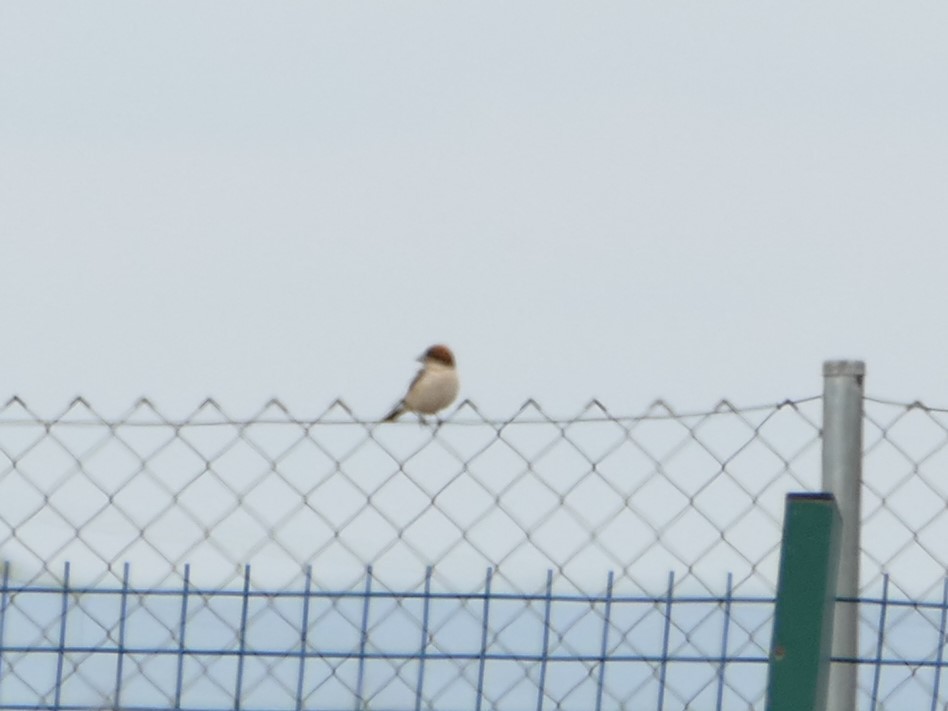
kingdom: Animalia
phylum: Chordata
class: Aves
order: Passeriformes
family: Laniidae
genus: Lanius
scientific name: Lanius senator
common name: Woodchat shrike
